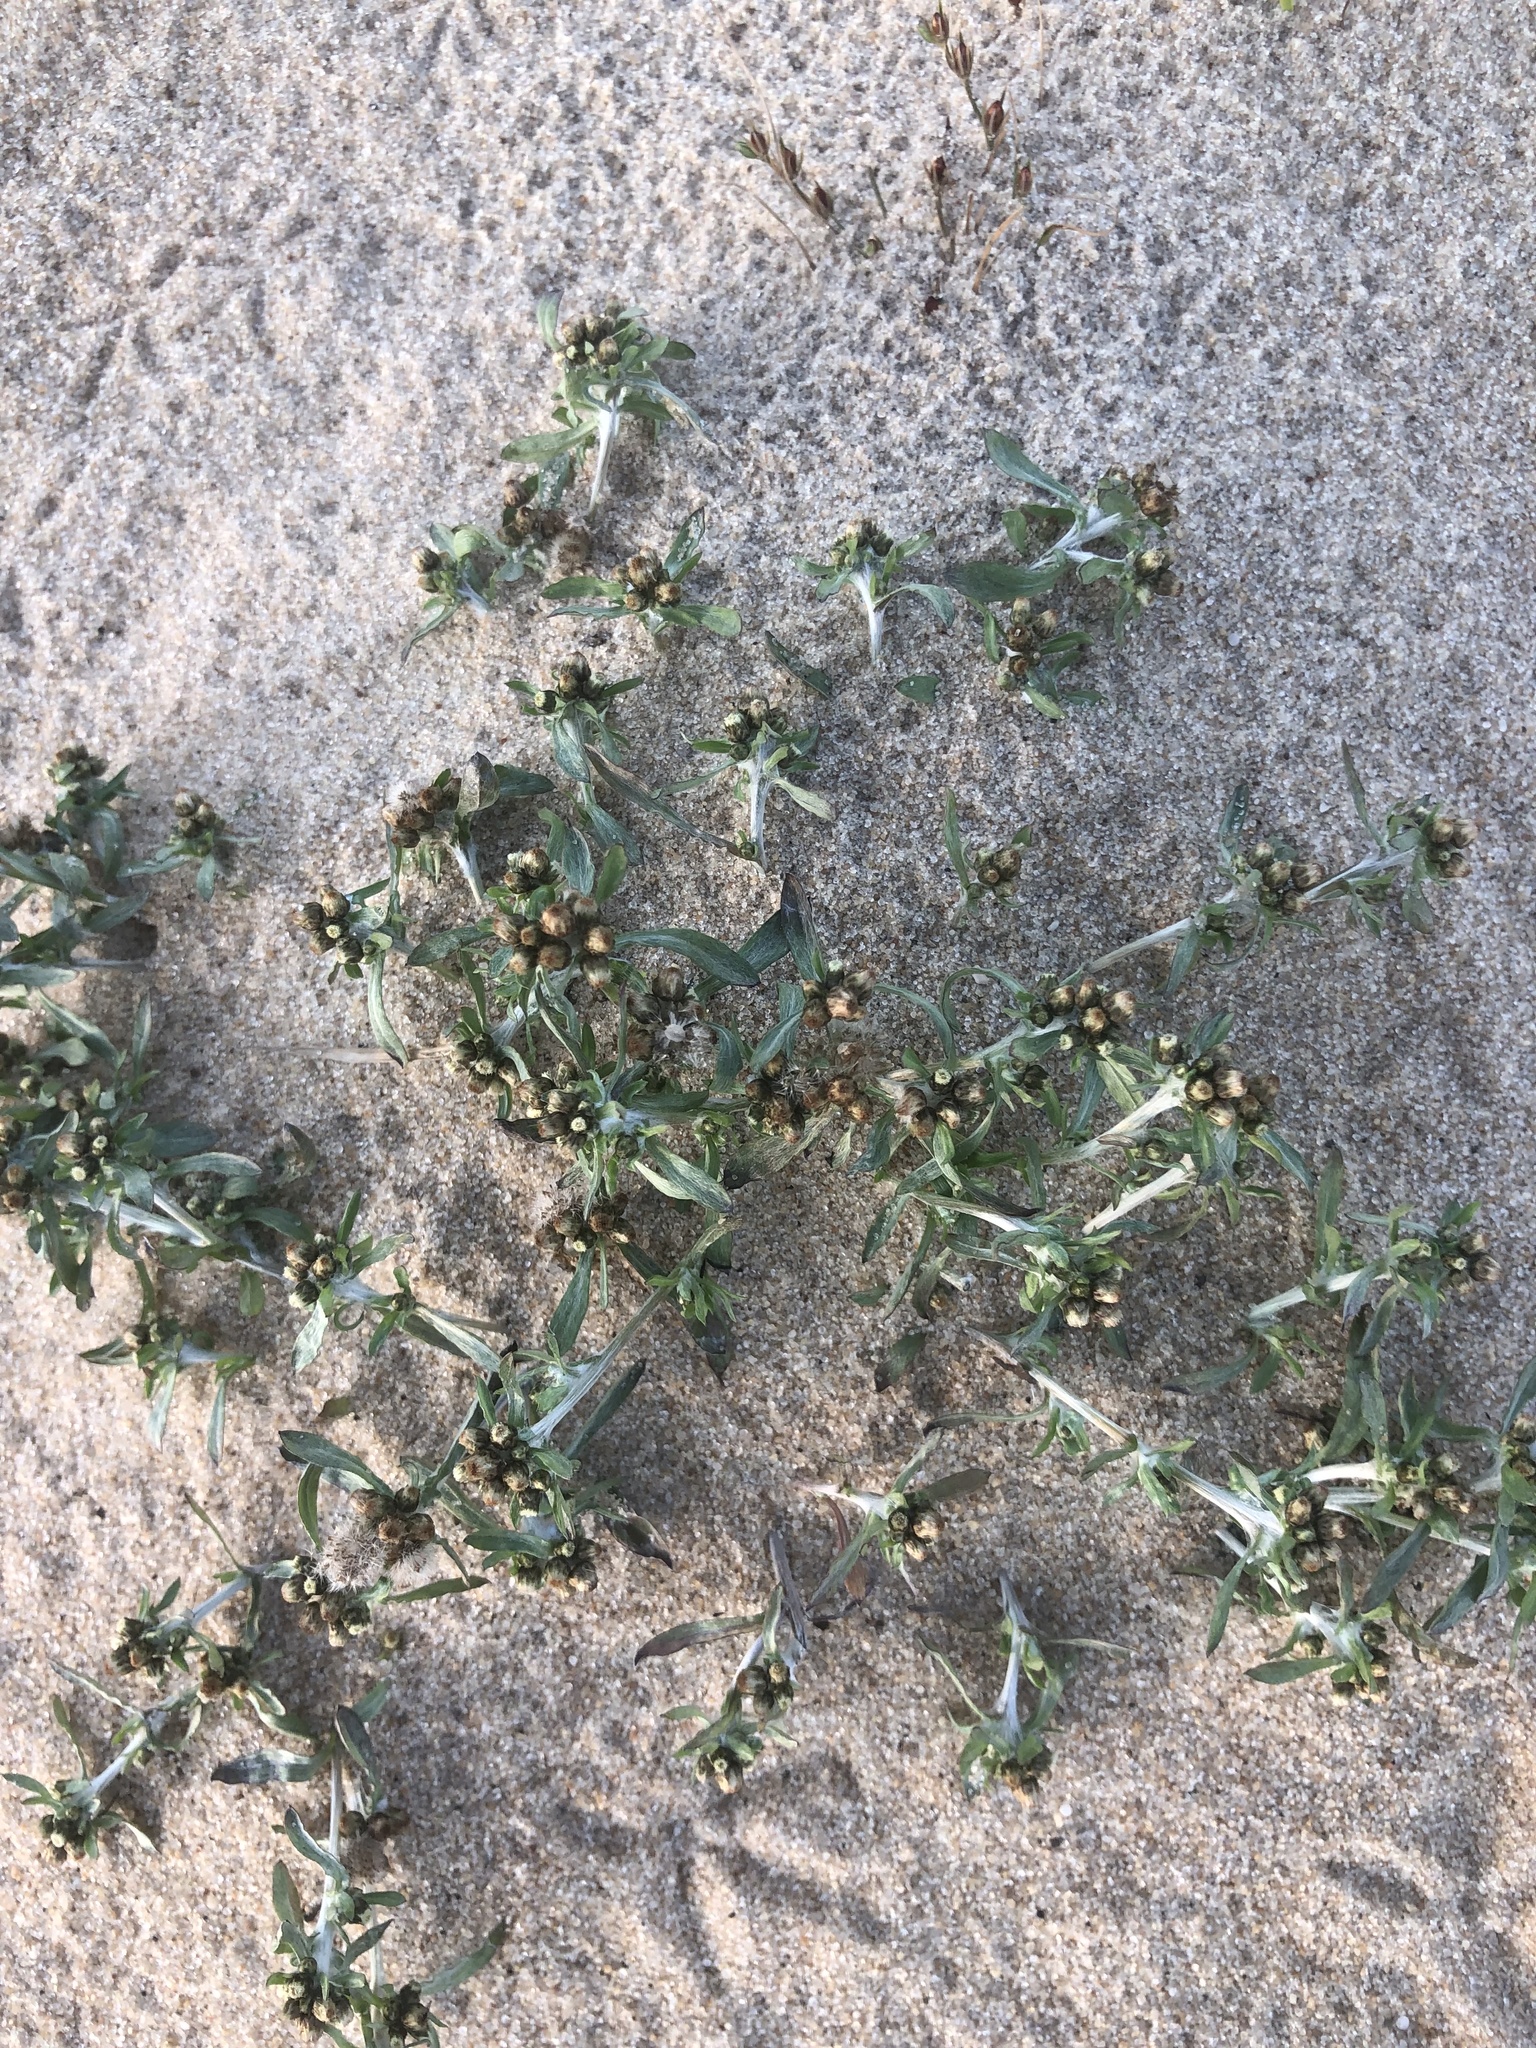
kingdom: Plantae
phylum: Tracheophyta
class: Magnoliopsida
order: Asterales
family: Asteraceae
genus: Gnaphalium
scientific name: Gnaphalium uliginosum
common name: Marsh cudweed
